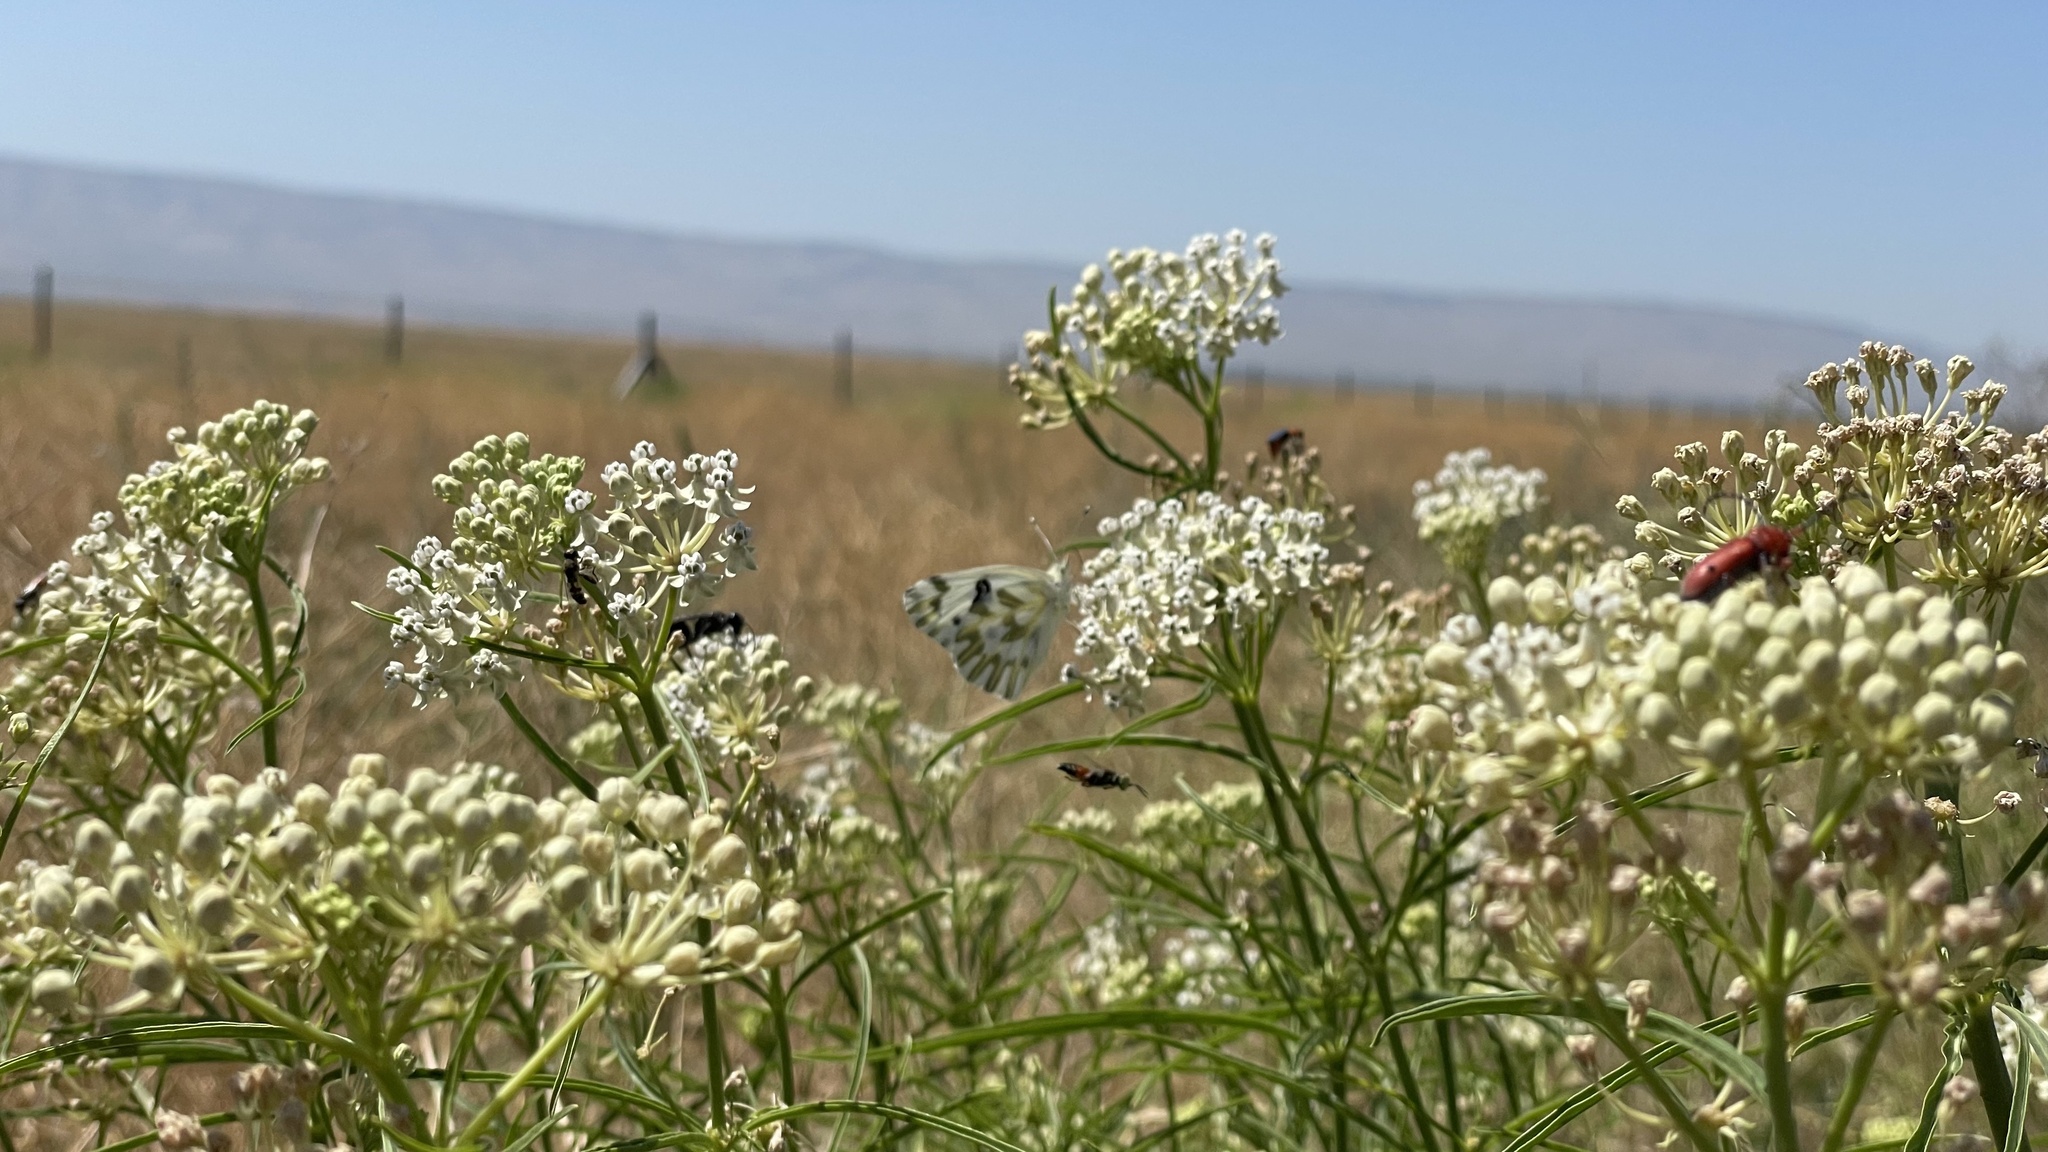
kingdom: Plantae
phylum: Tracheophyta
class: Magnoliopsida
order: Gentianales
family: Apocynaceae
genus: Asclepias
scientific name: Asclepias fascicularis
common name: Mexican milkweed
